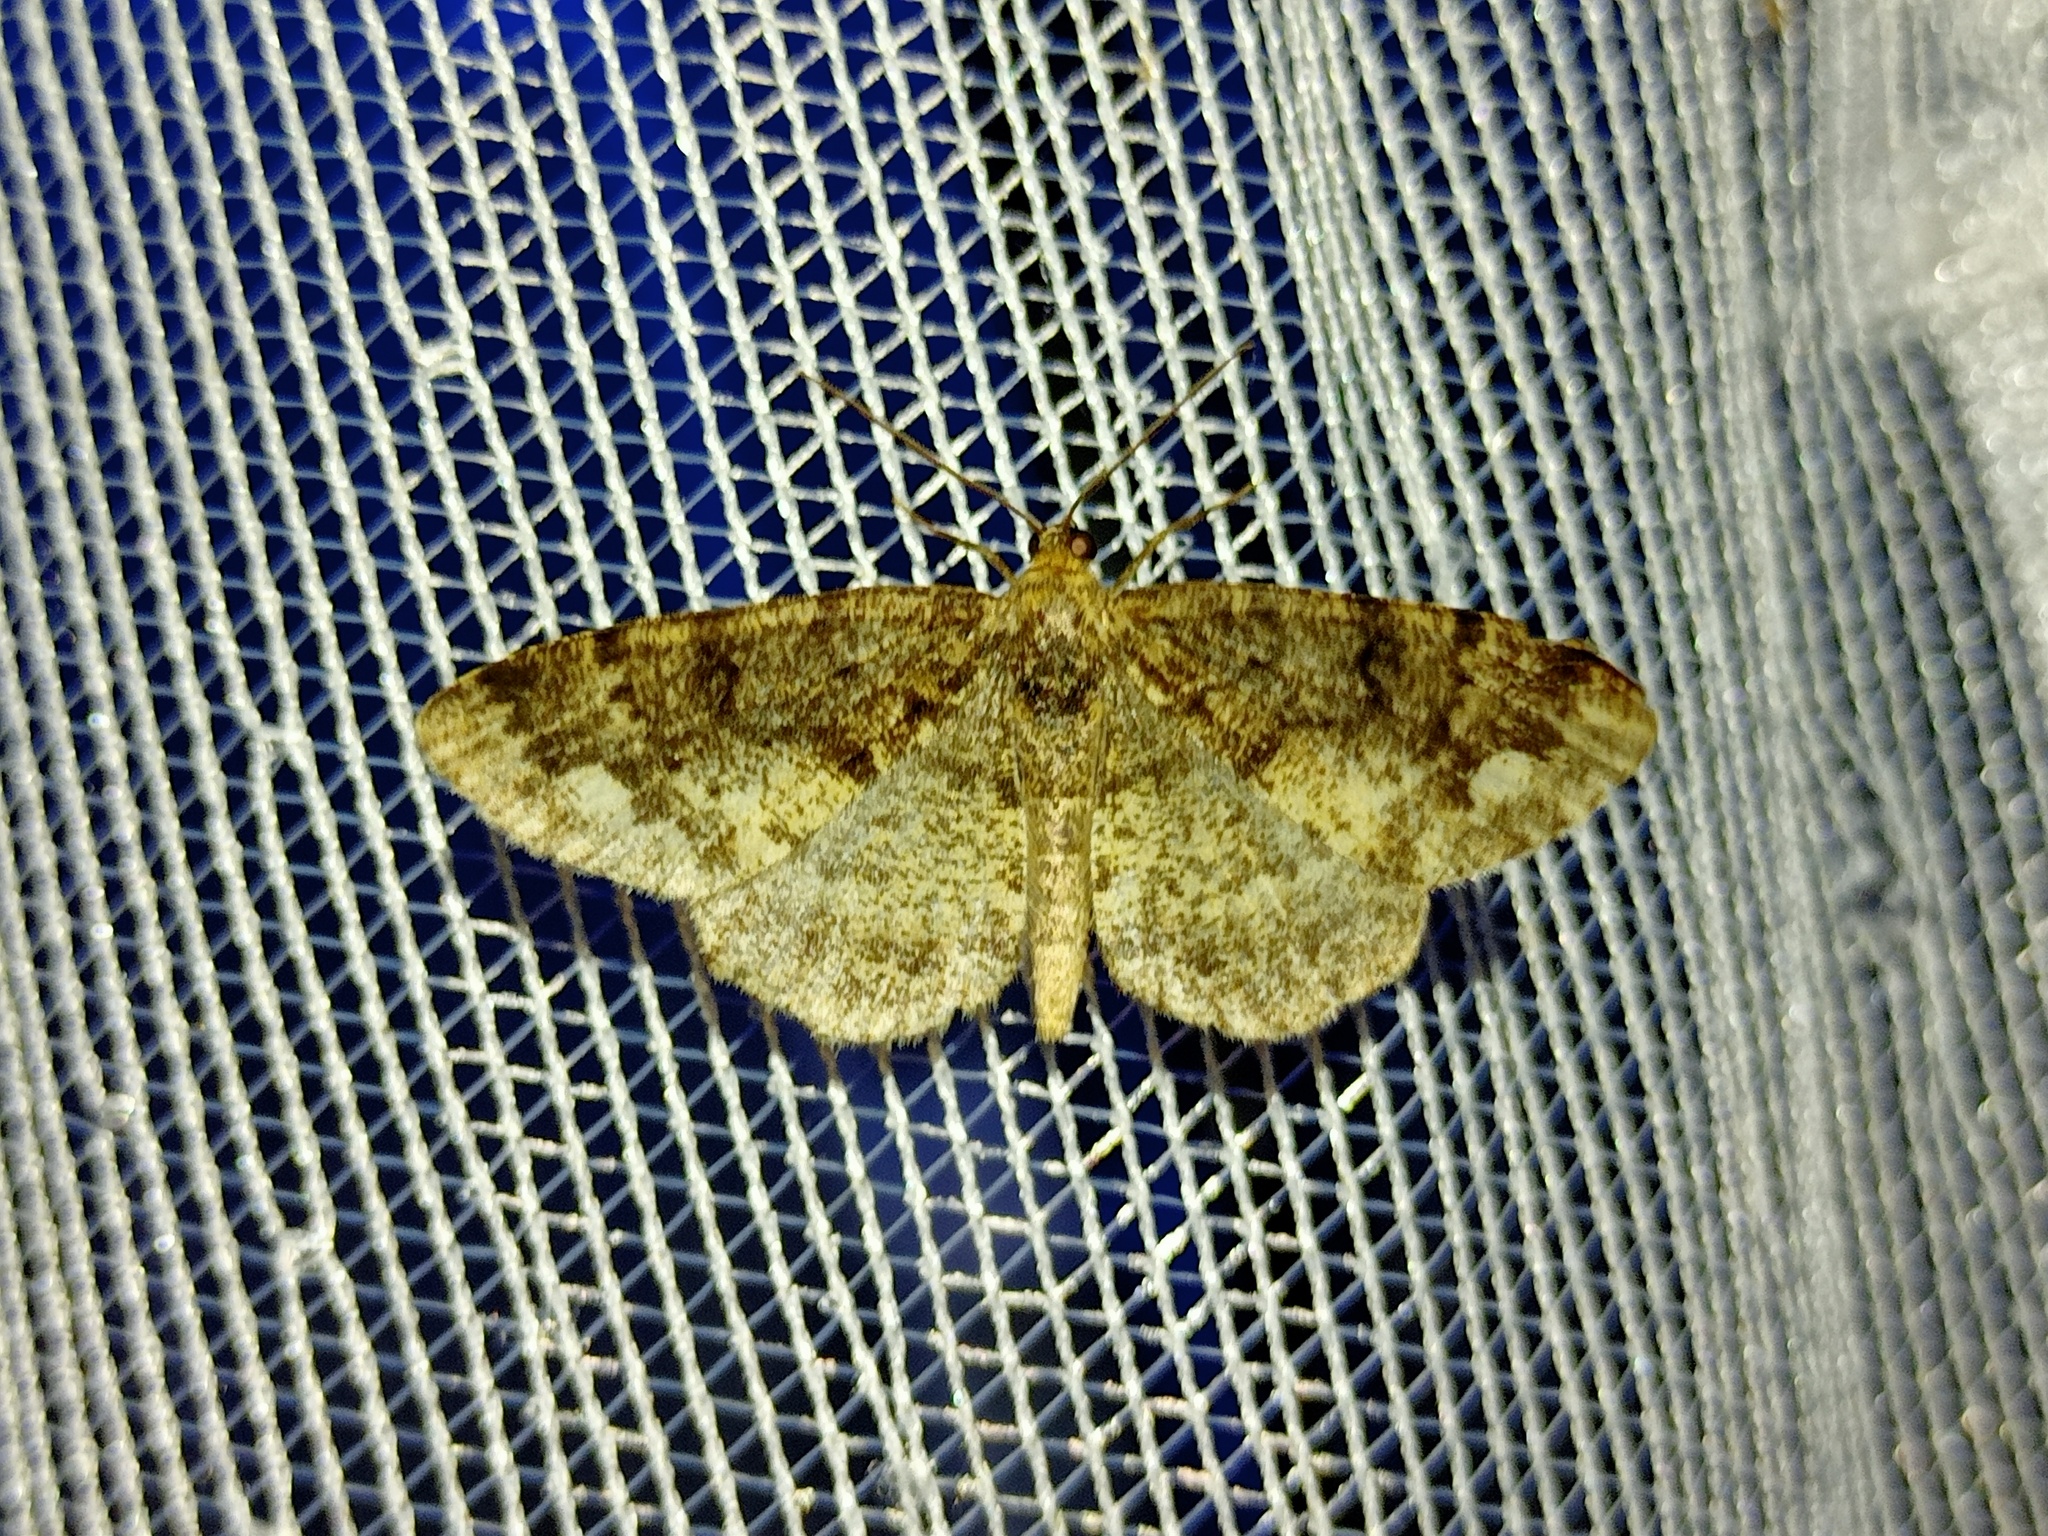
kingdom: Animalia
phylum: Arthropoda
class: Insecta
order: Lepidoptera
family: Geometridae
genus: Parectropis
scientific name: Parectropis similaria
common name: Brindled white-spot
